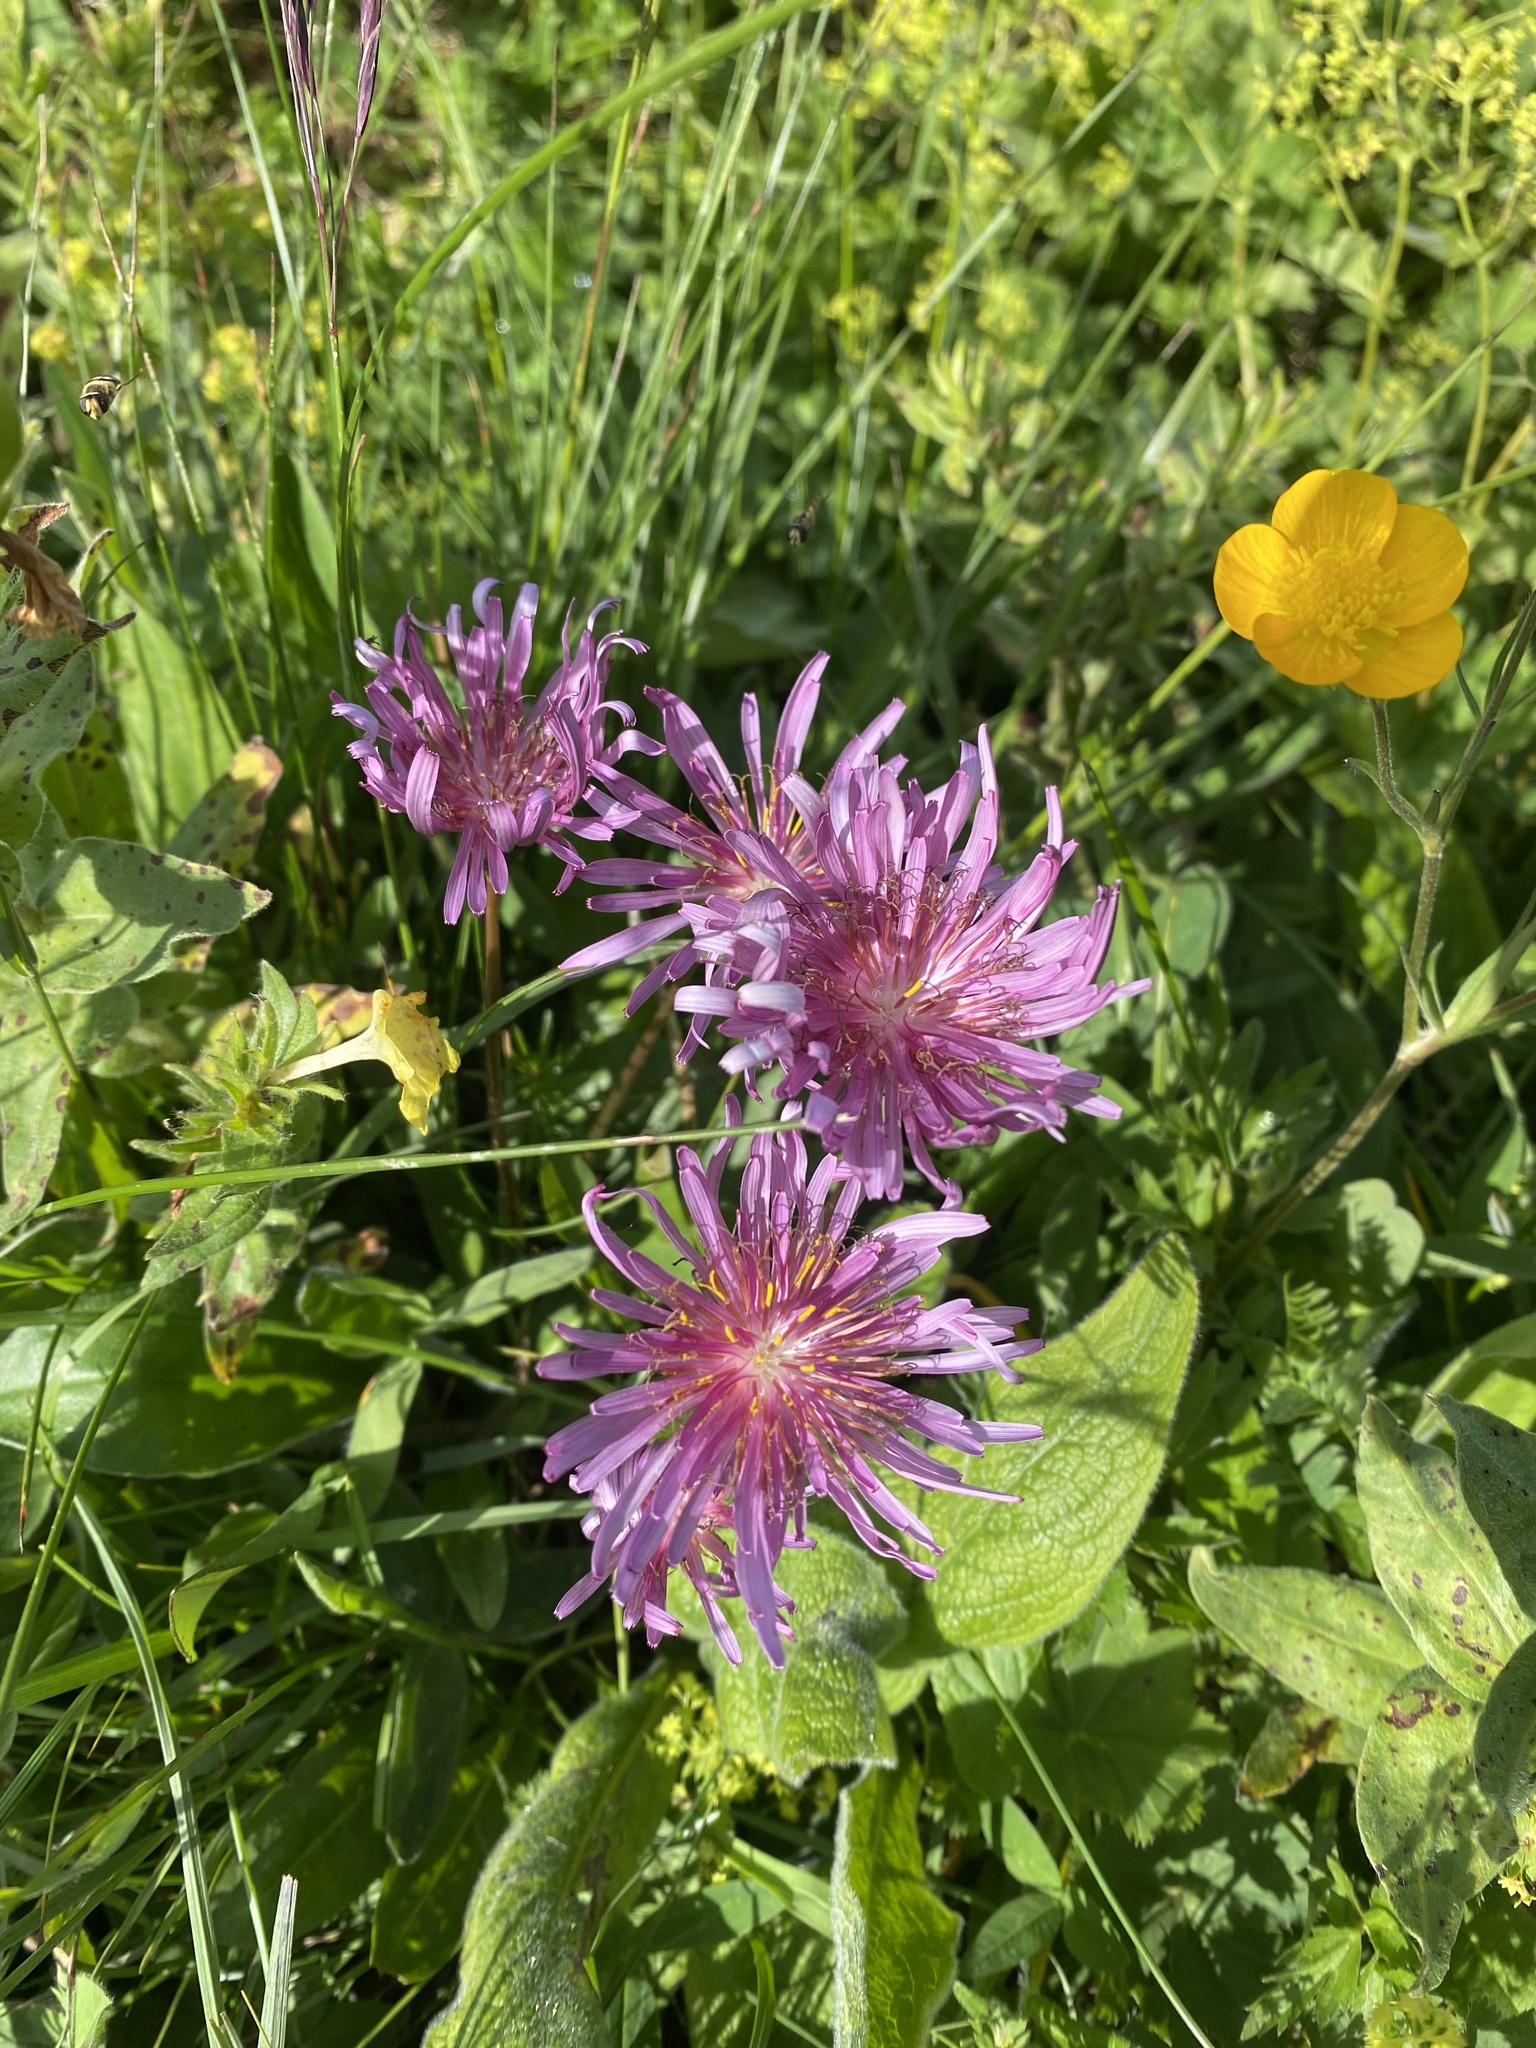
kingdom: Plantae
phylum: Tracheophyta
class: Magnoliopsida
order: Asterales
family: Asteraceae
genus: Taraxacum
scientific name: Taraxacum porphyranthum
